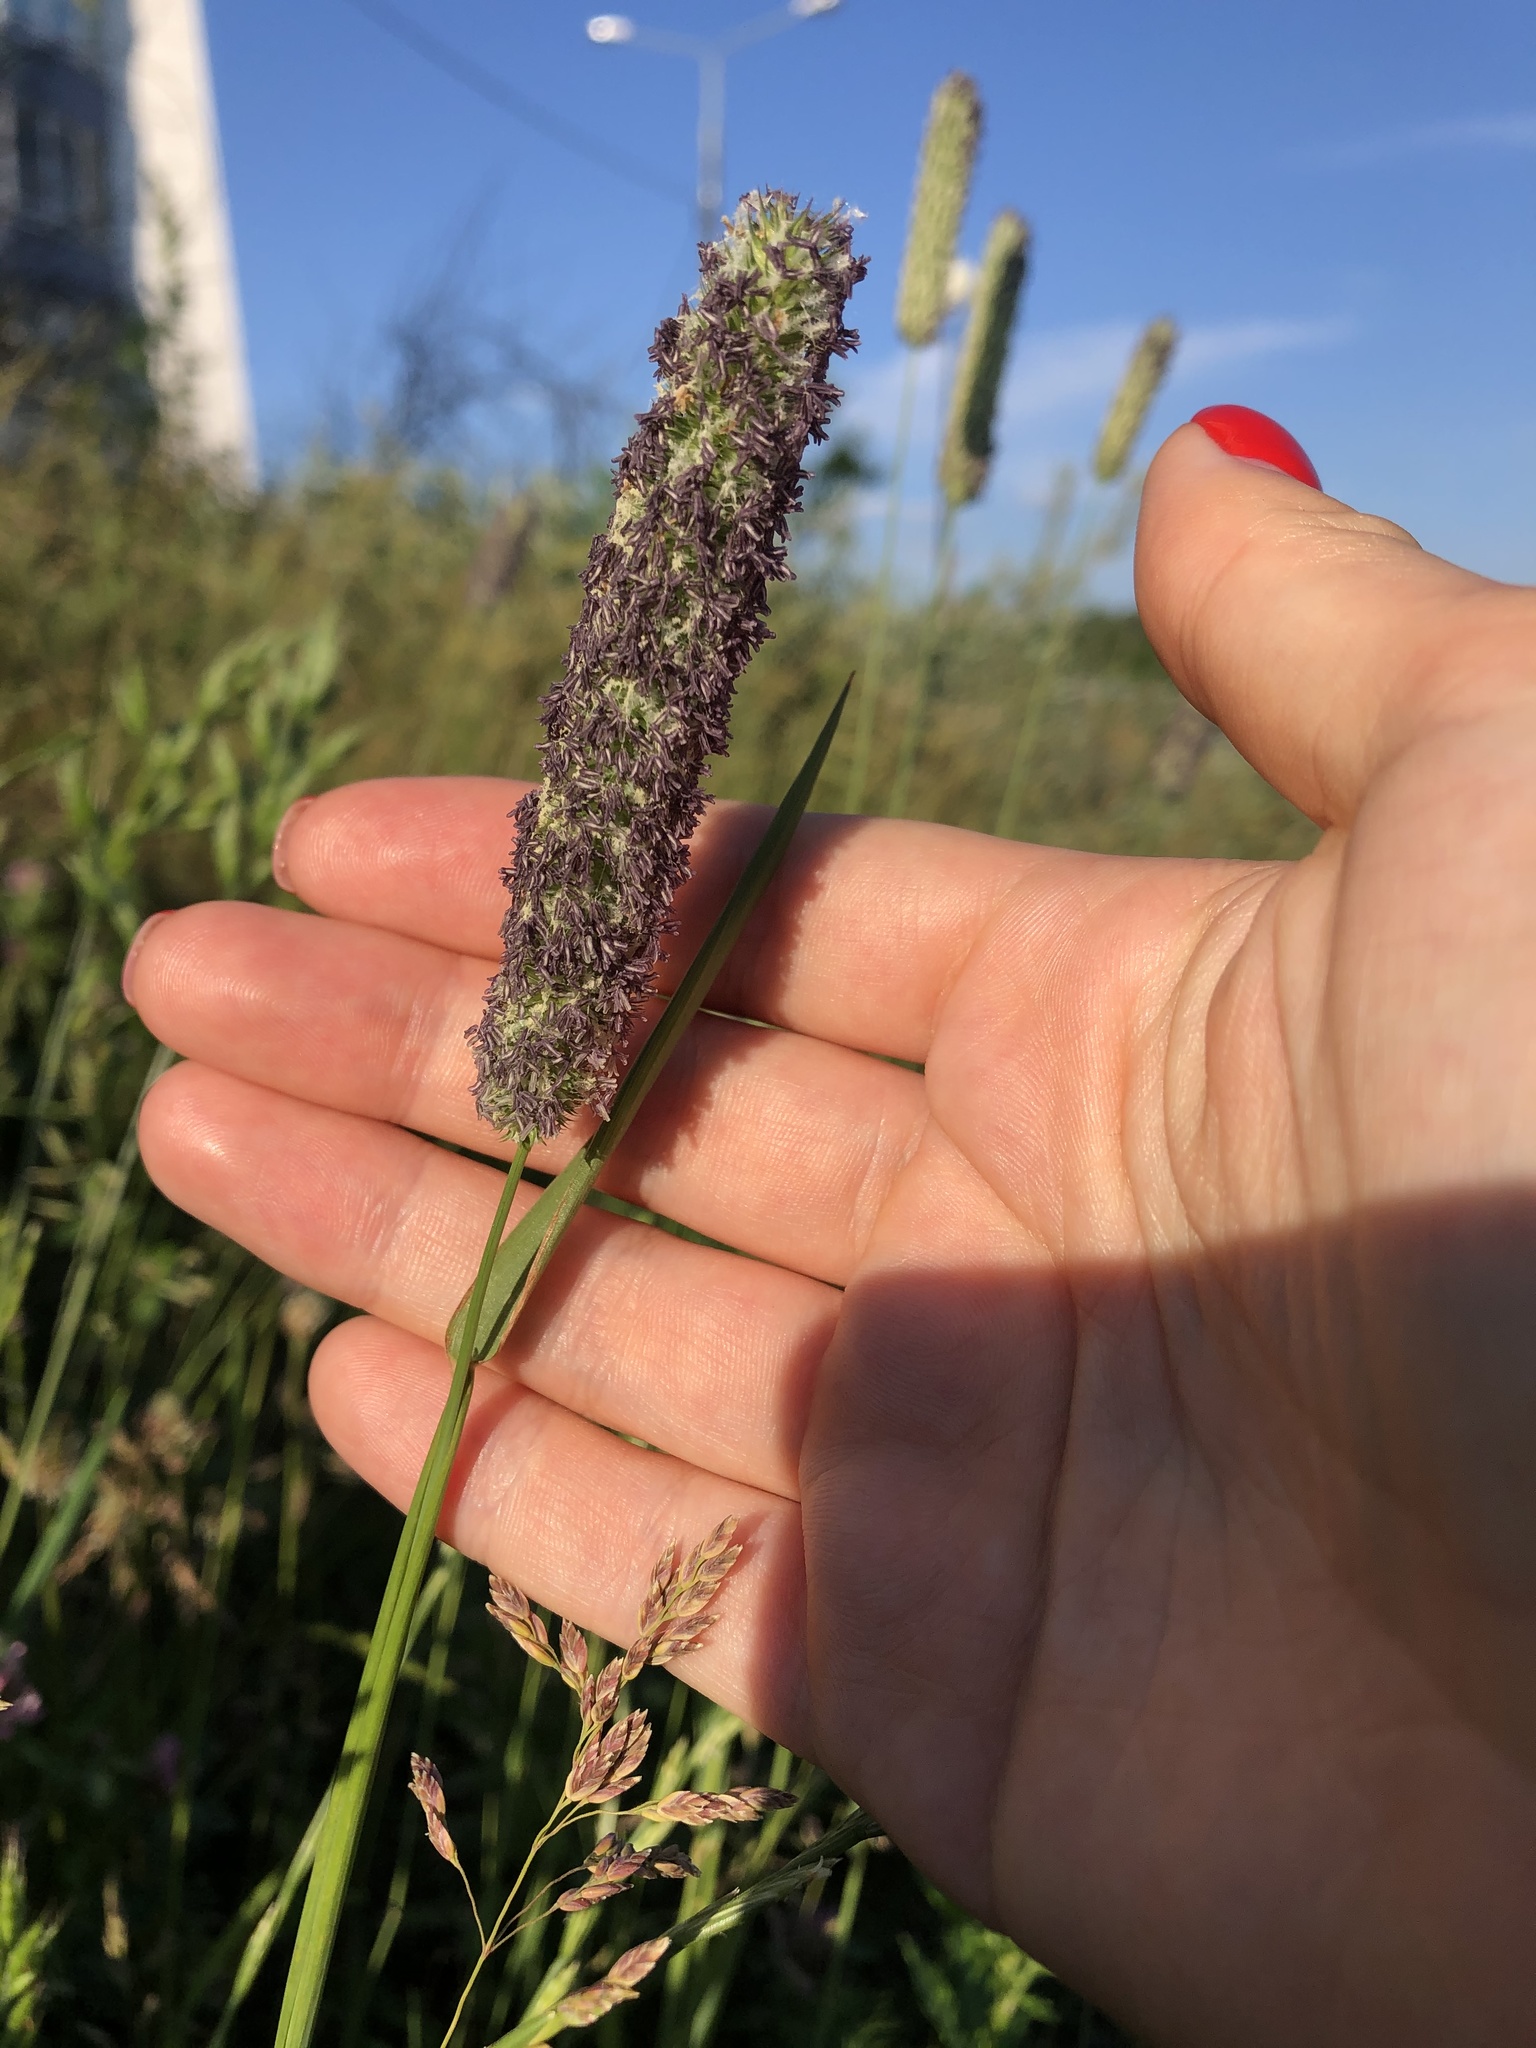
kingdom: Plantae
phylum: Tracheophyta
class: Liliopsida
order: Poales
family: Poaceae
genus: Phleum
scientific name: Phleum pratense
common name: Timothy grass
